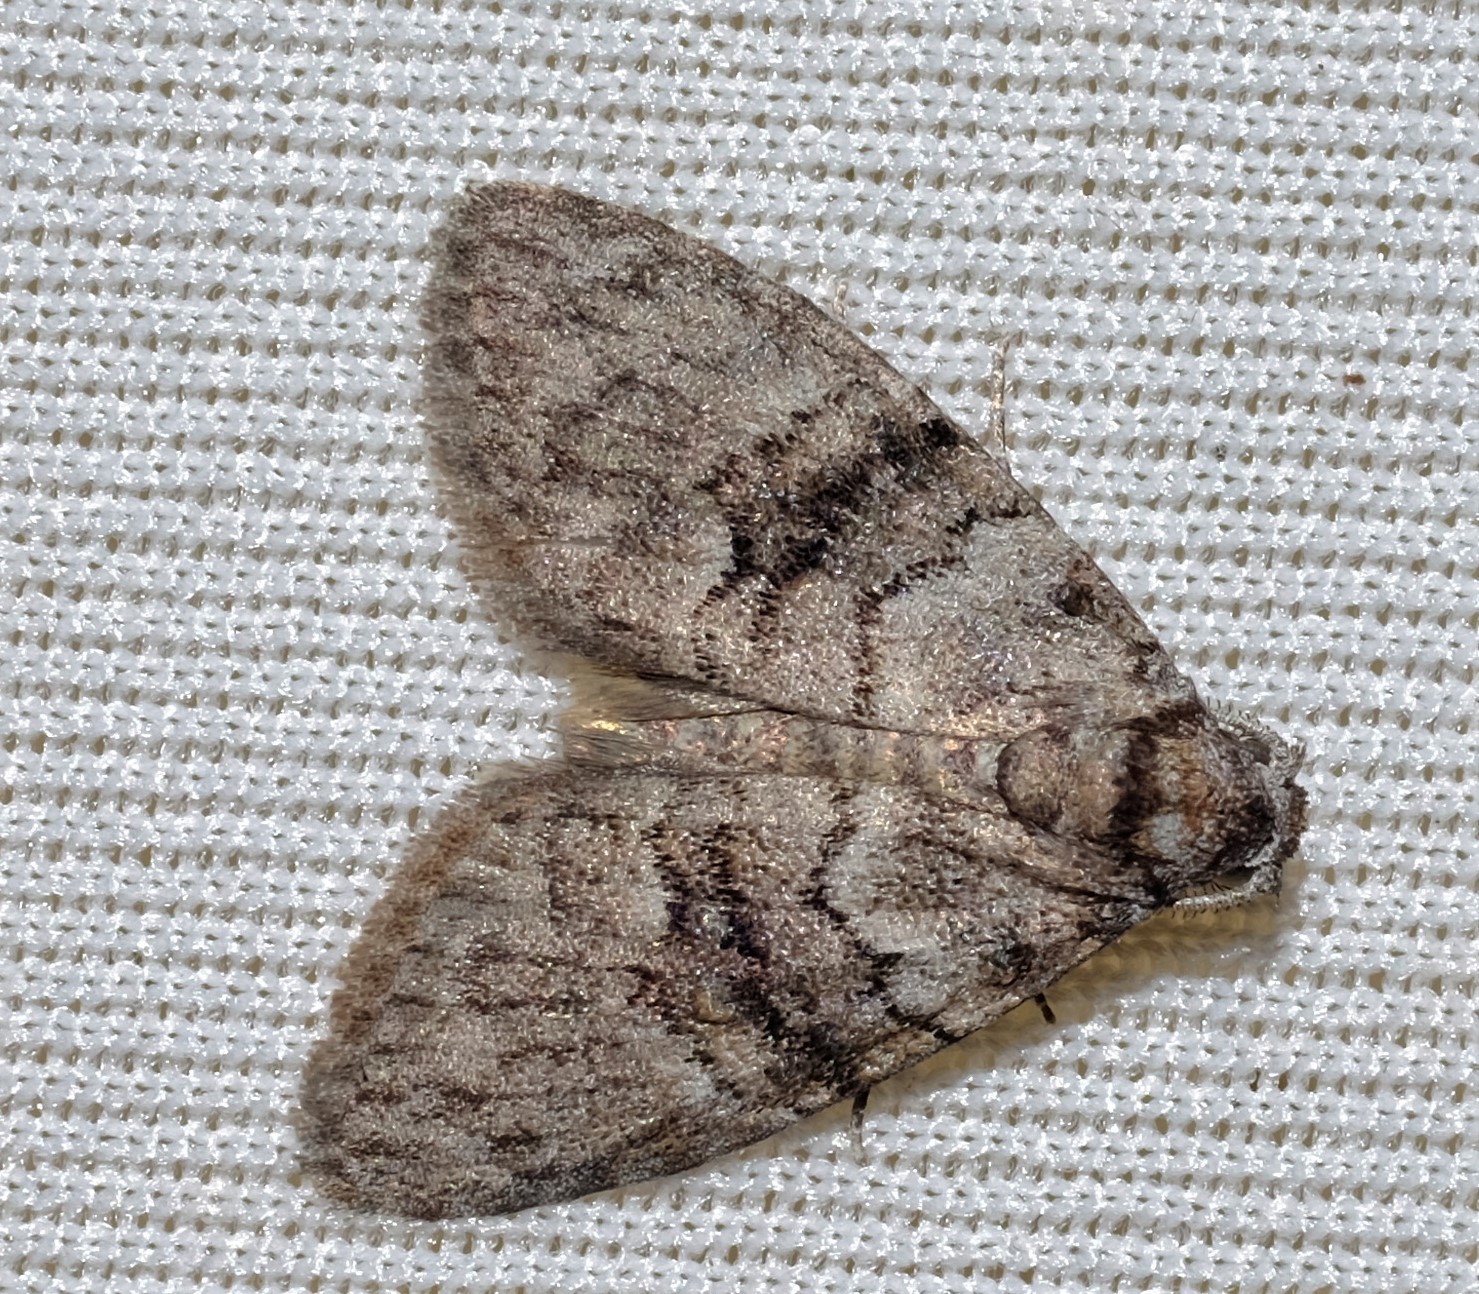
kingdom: Animalia
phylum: Arthropoda
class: Insecta
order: Lepidoptera
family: Nolidae
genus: Uraba
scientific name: Uraba lugens
